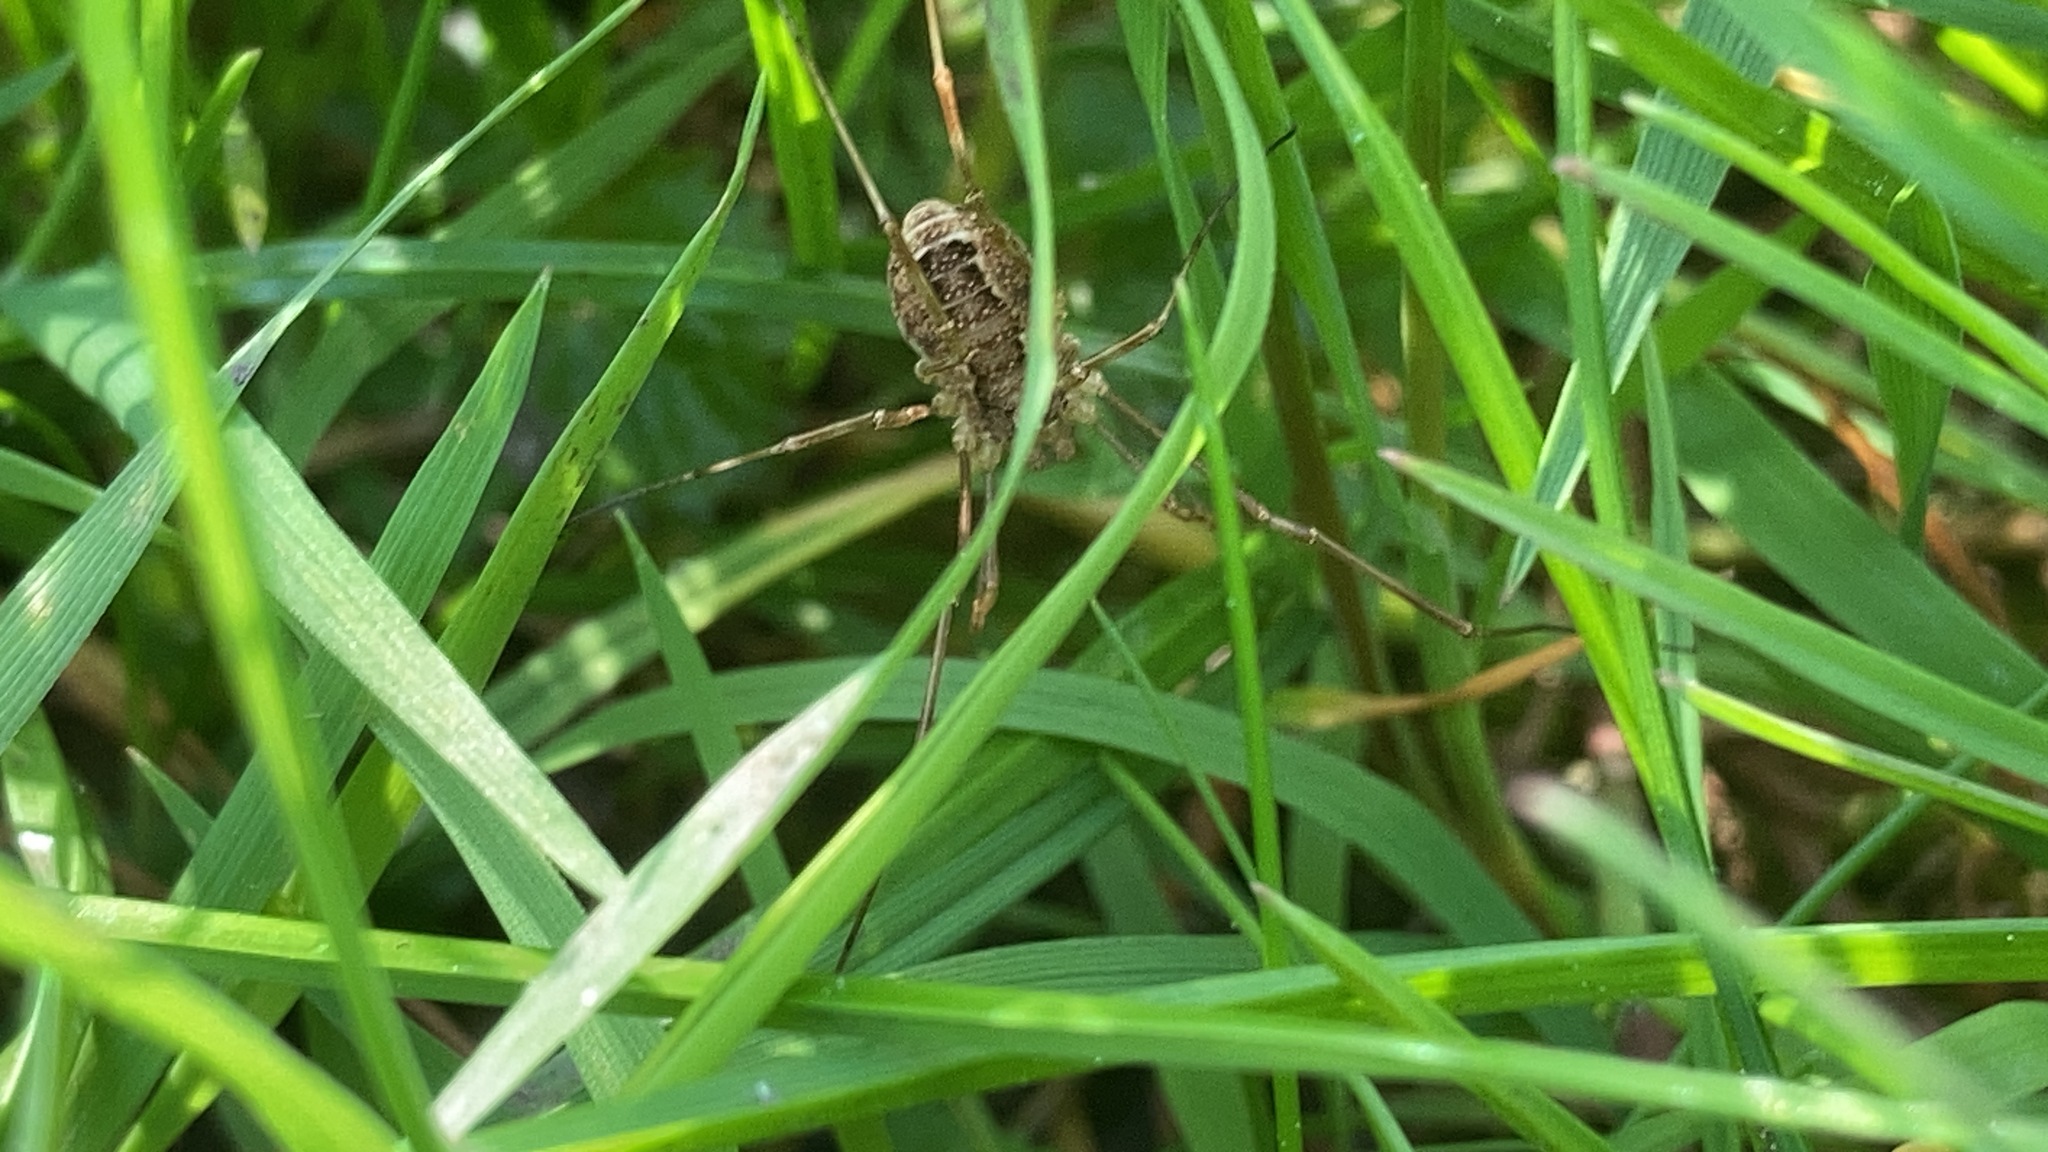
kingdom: Animalia
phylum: Arthropoda
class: Arachnida
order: Opiliones
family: Phalangiidae
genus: Rilaena
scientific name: Rilaena triangularis
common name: Spring harvestman
